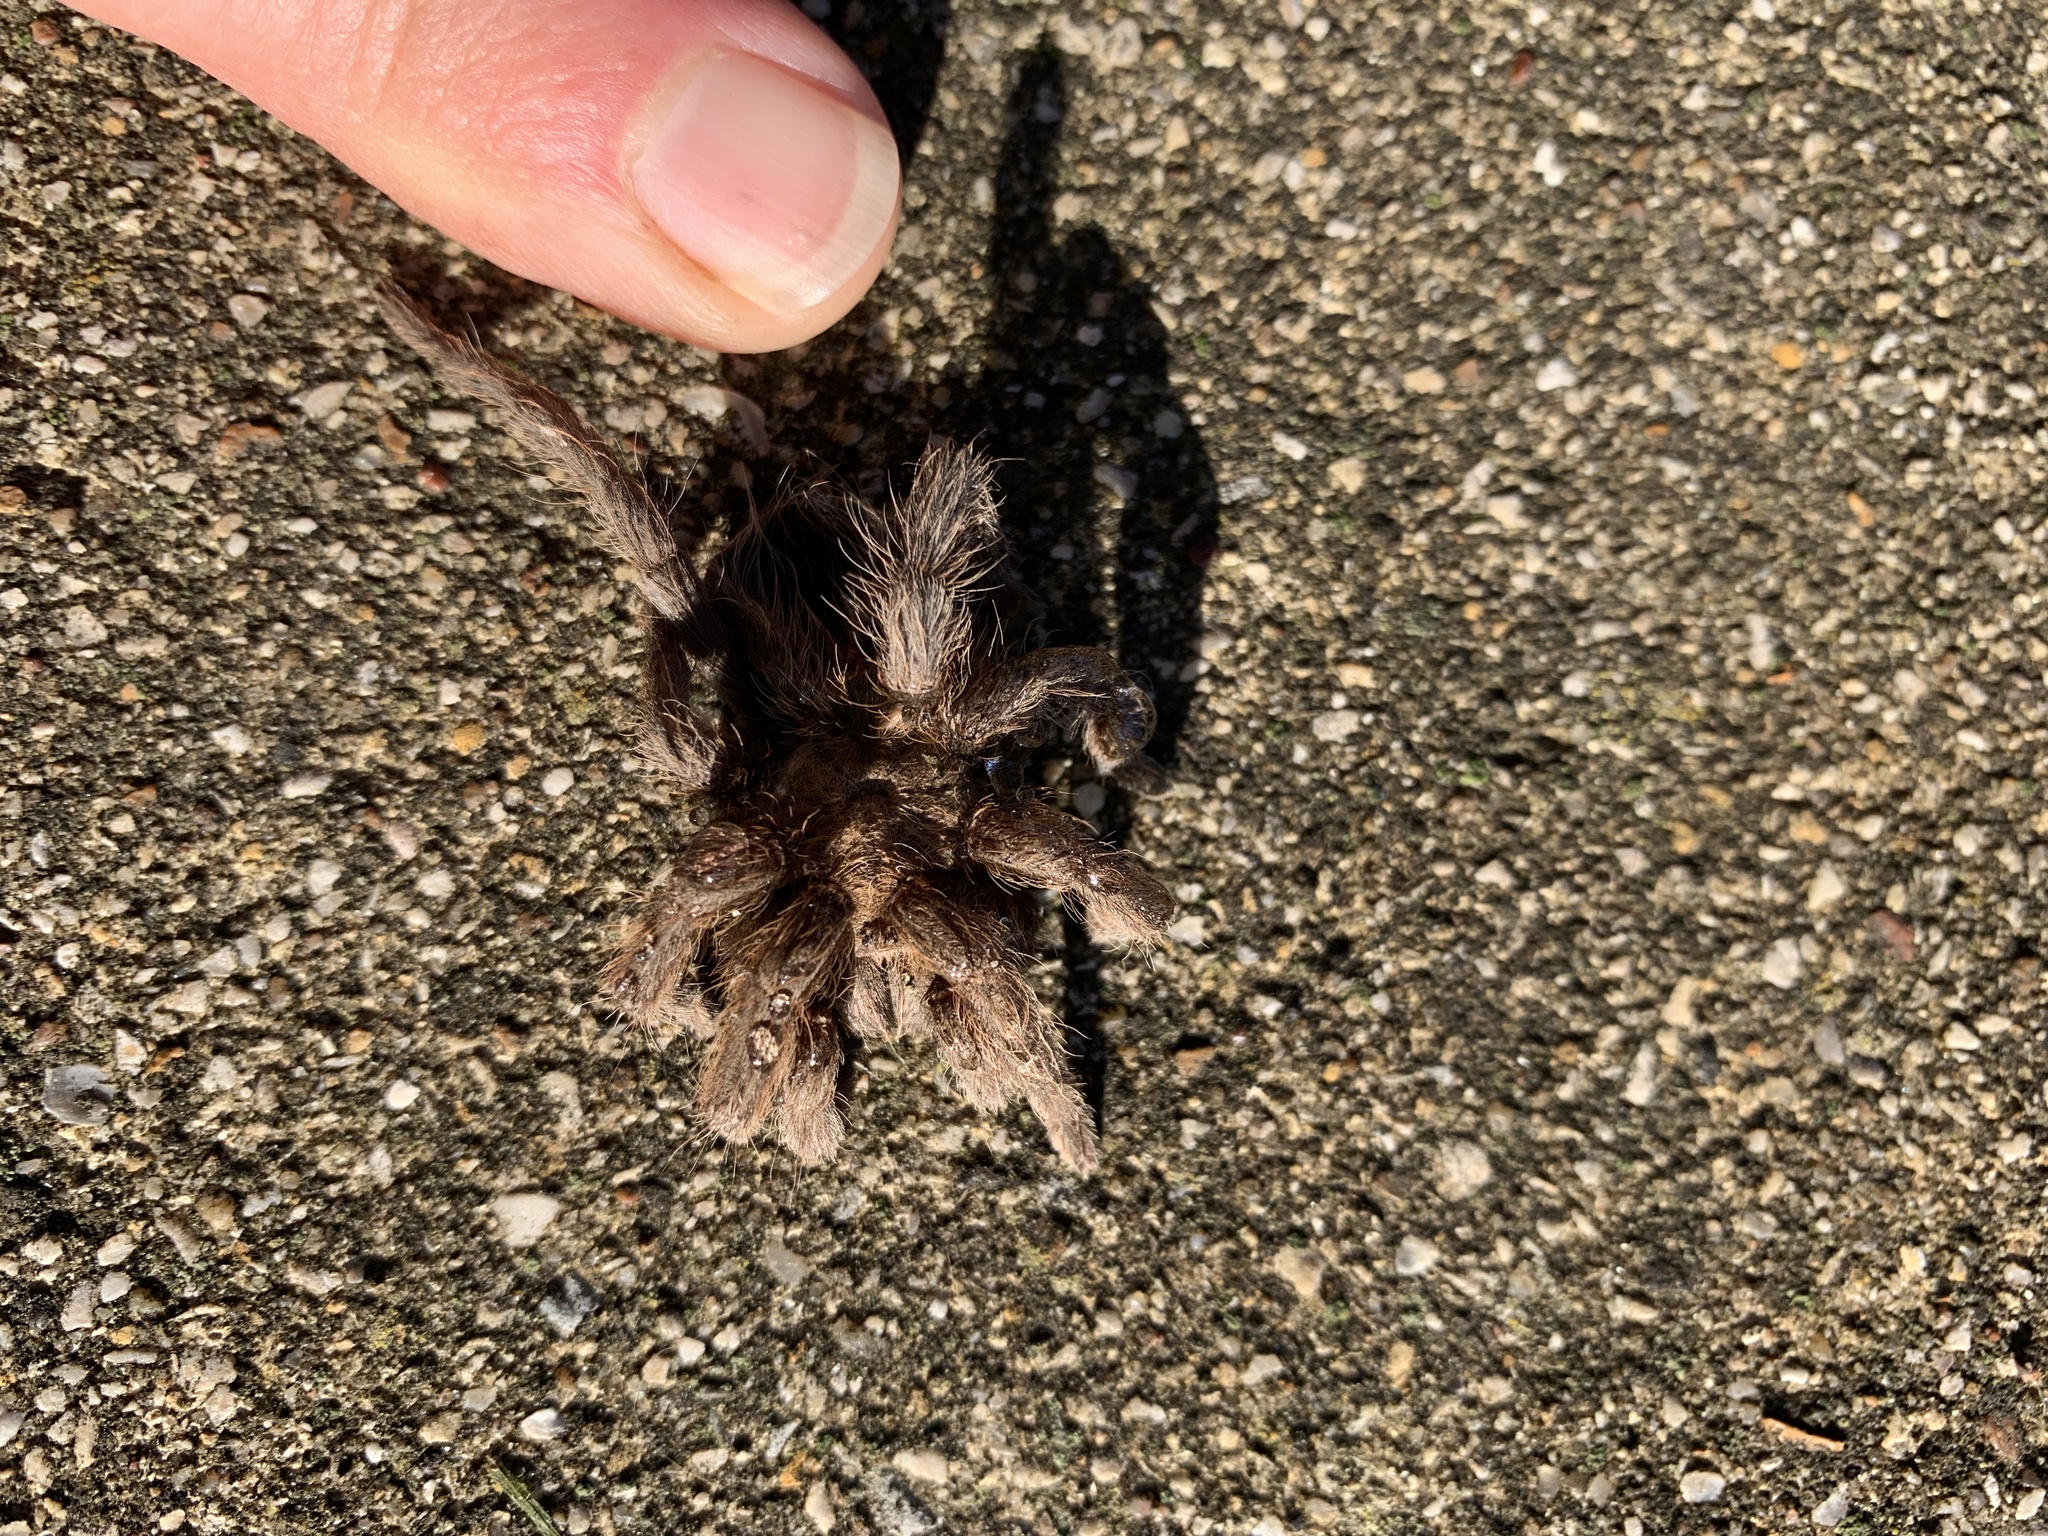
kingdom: Animalia
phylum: Arthropoda
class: Arachnida
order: Araneae
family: Theraphosidae
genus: Aphonopelma
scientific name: Aphonopelma hentzi
